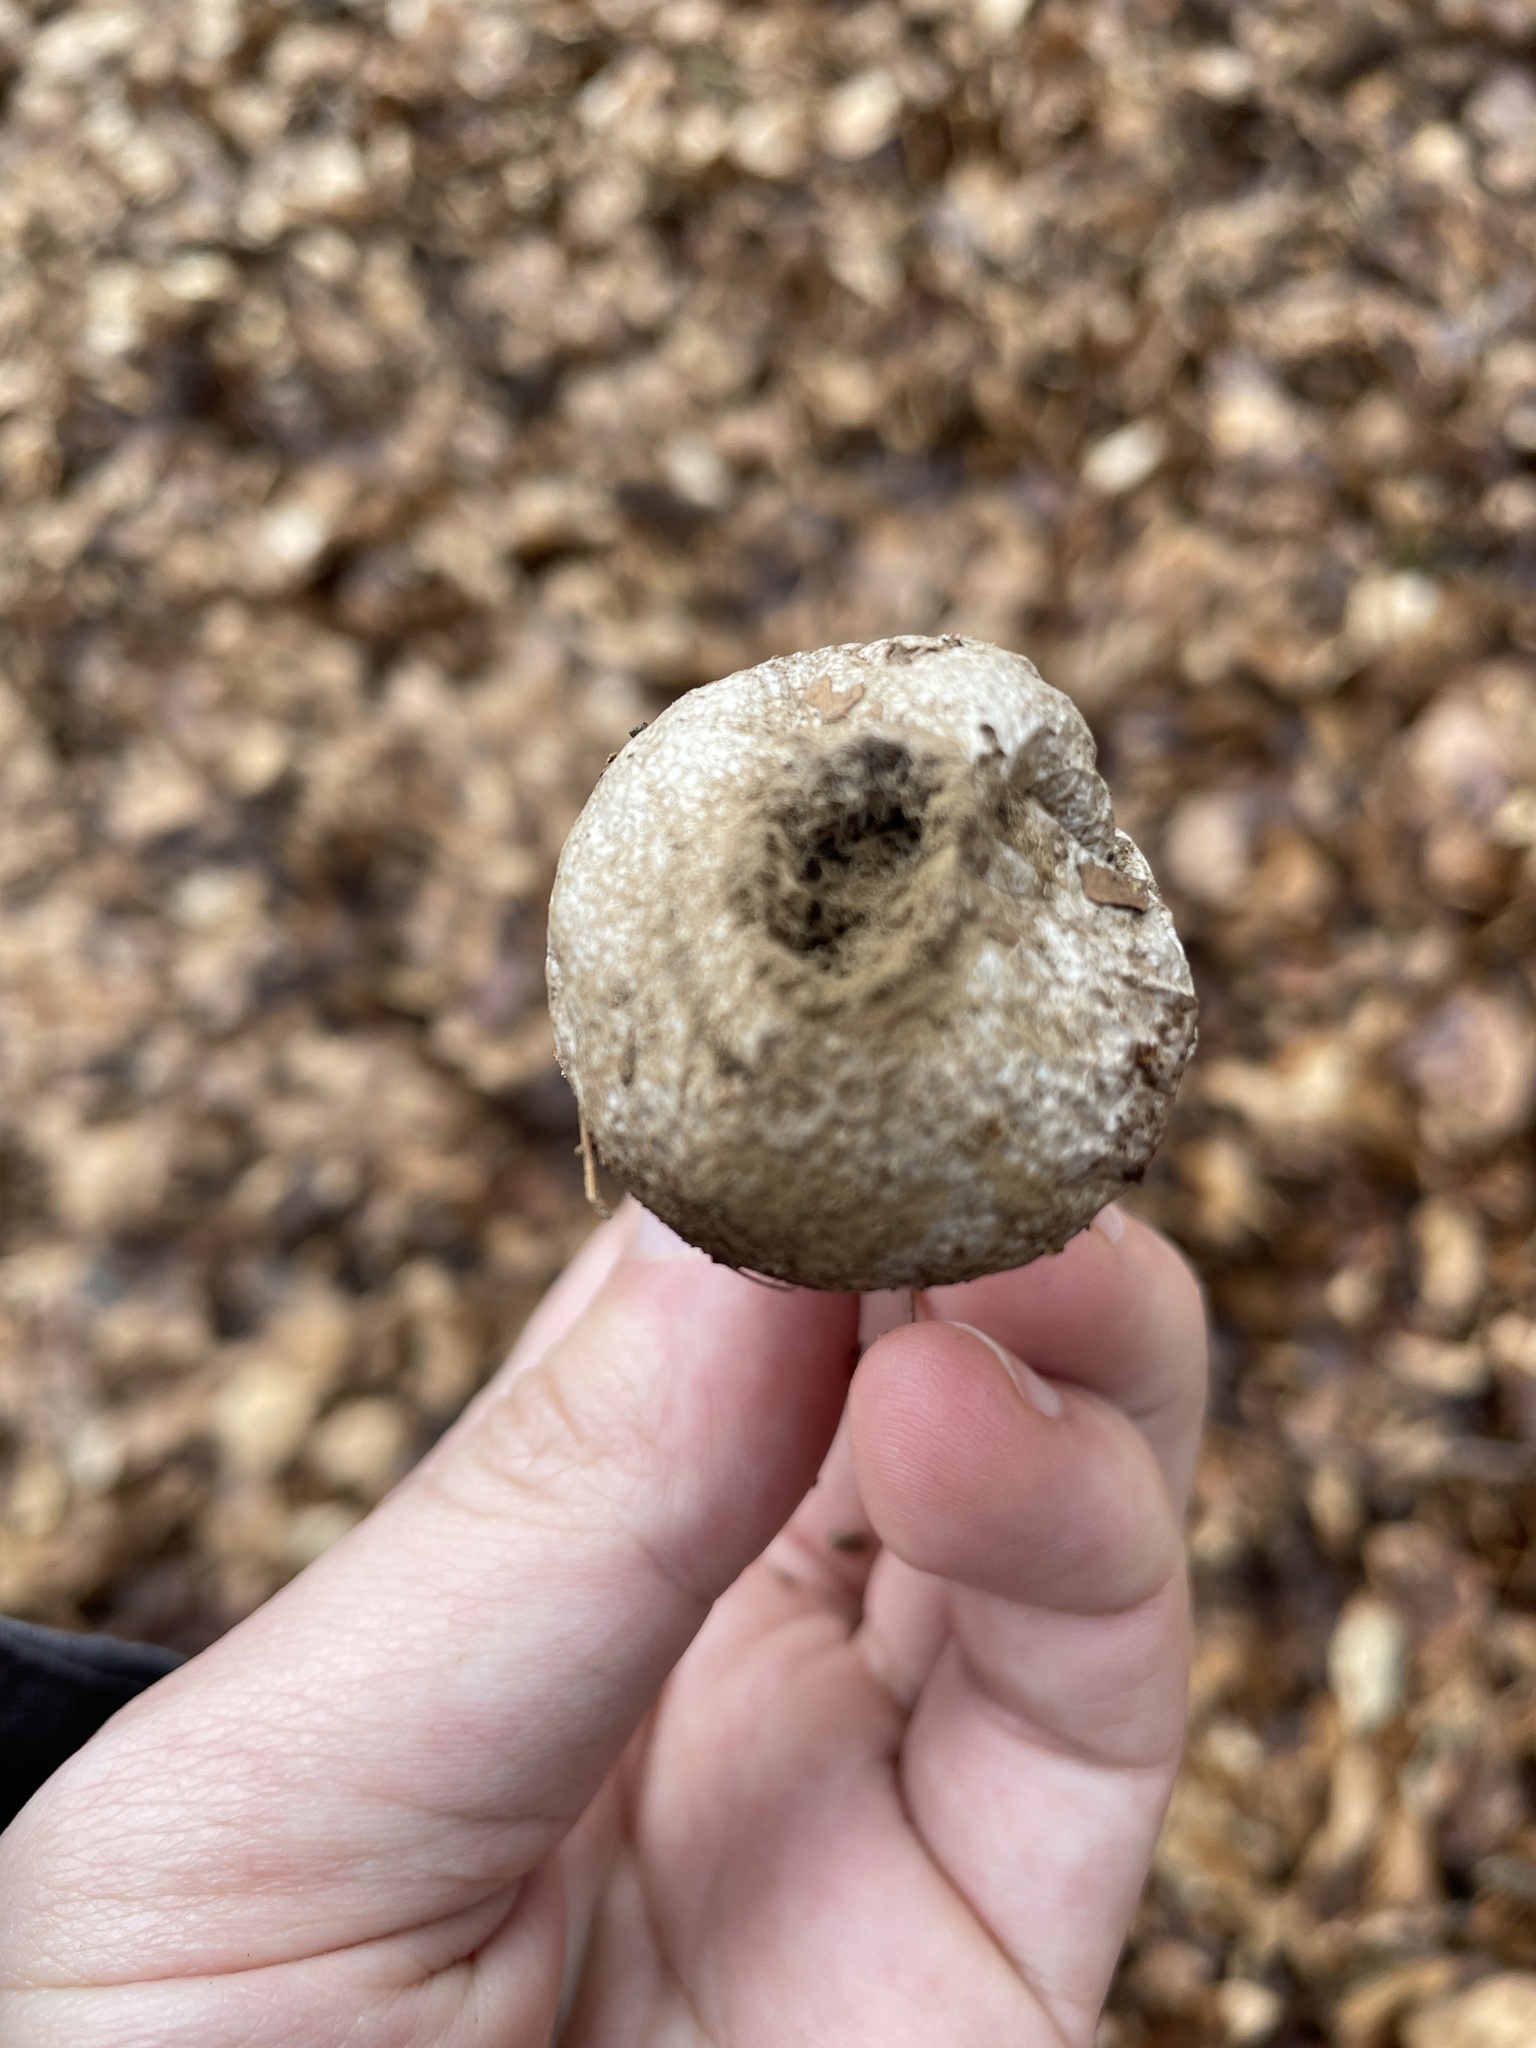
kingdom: Fungi
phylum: Basidiomycota
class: Agaricomycetes
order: Agaricales
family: Lycoperdaceae
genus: Lycoperdon
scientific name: Lycoperdon perlatum
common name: Common puffball
